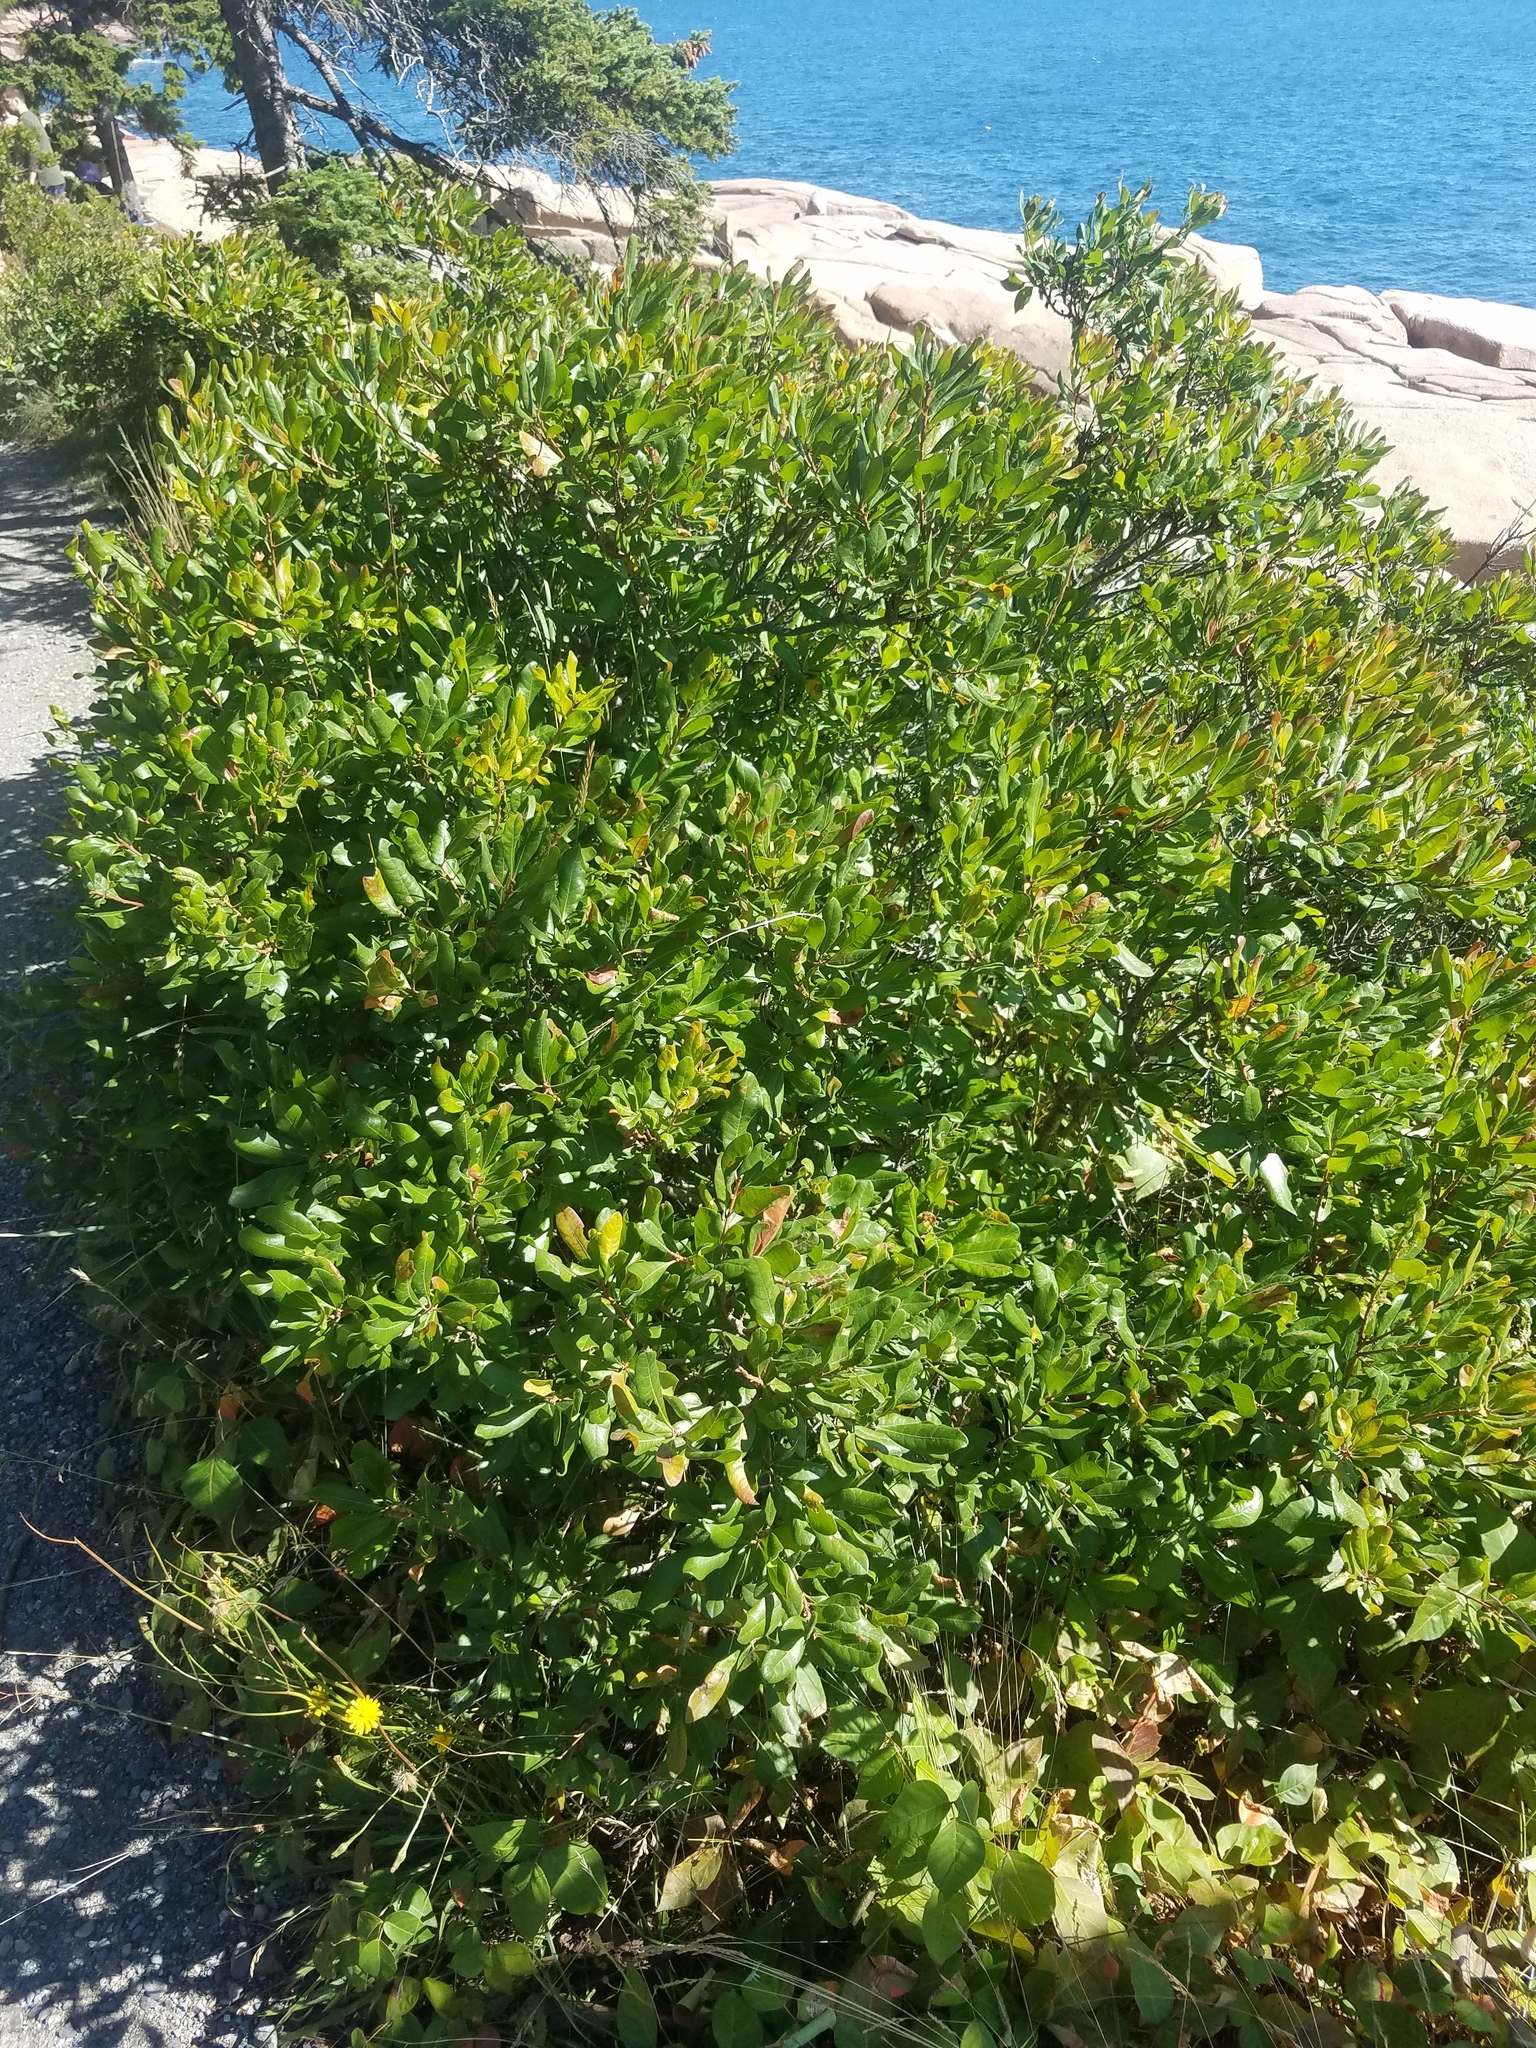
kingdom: Plantae
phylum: Tracheophyta
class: Magnoliopsida
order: Fagales
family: Myricaceae
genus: Morella
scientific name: Morella pensylvanica
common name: Northern bayberry
